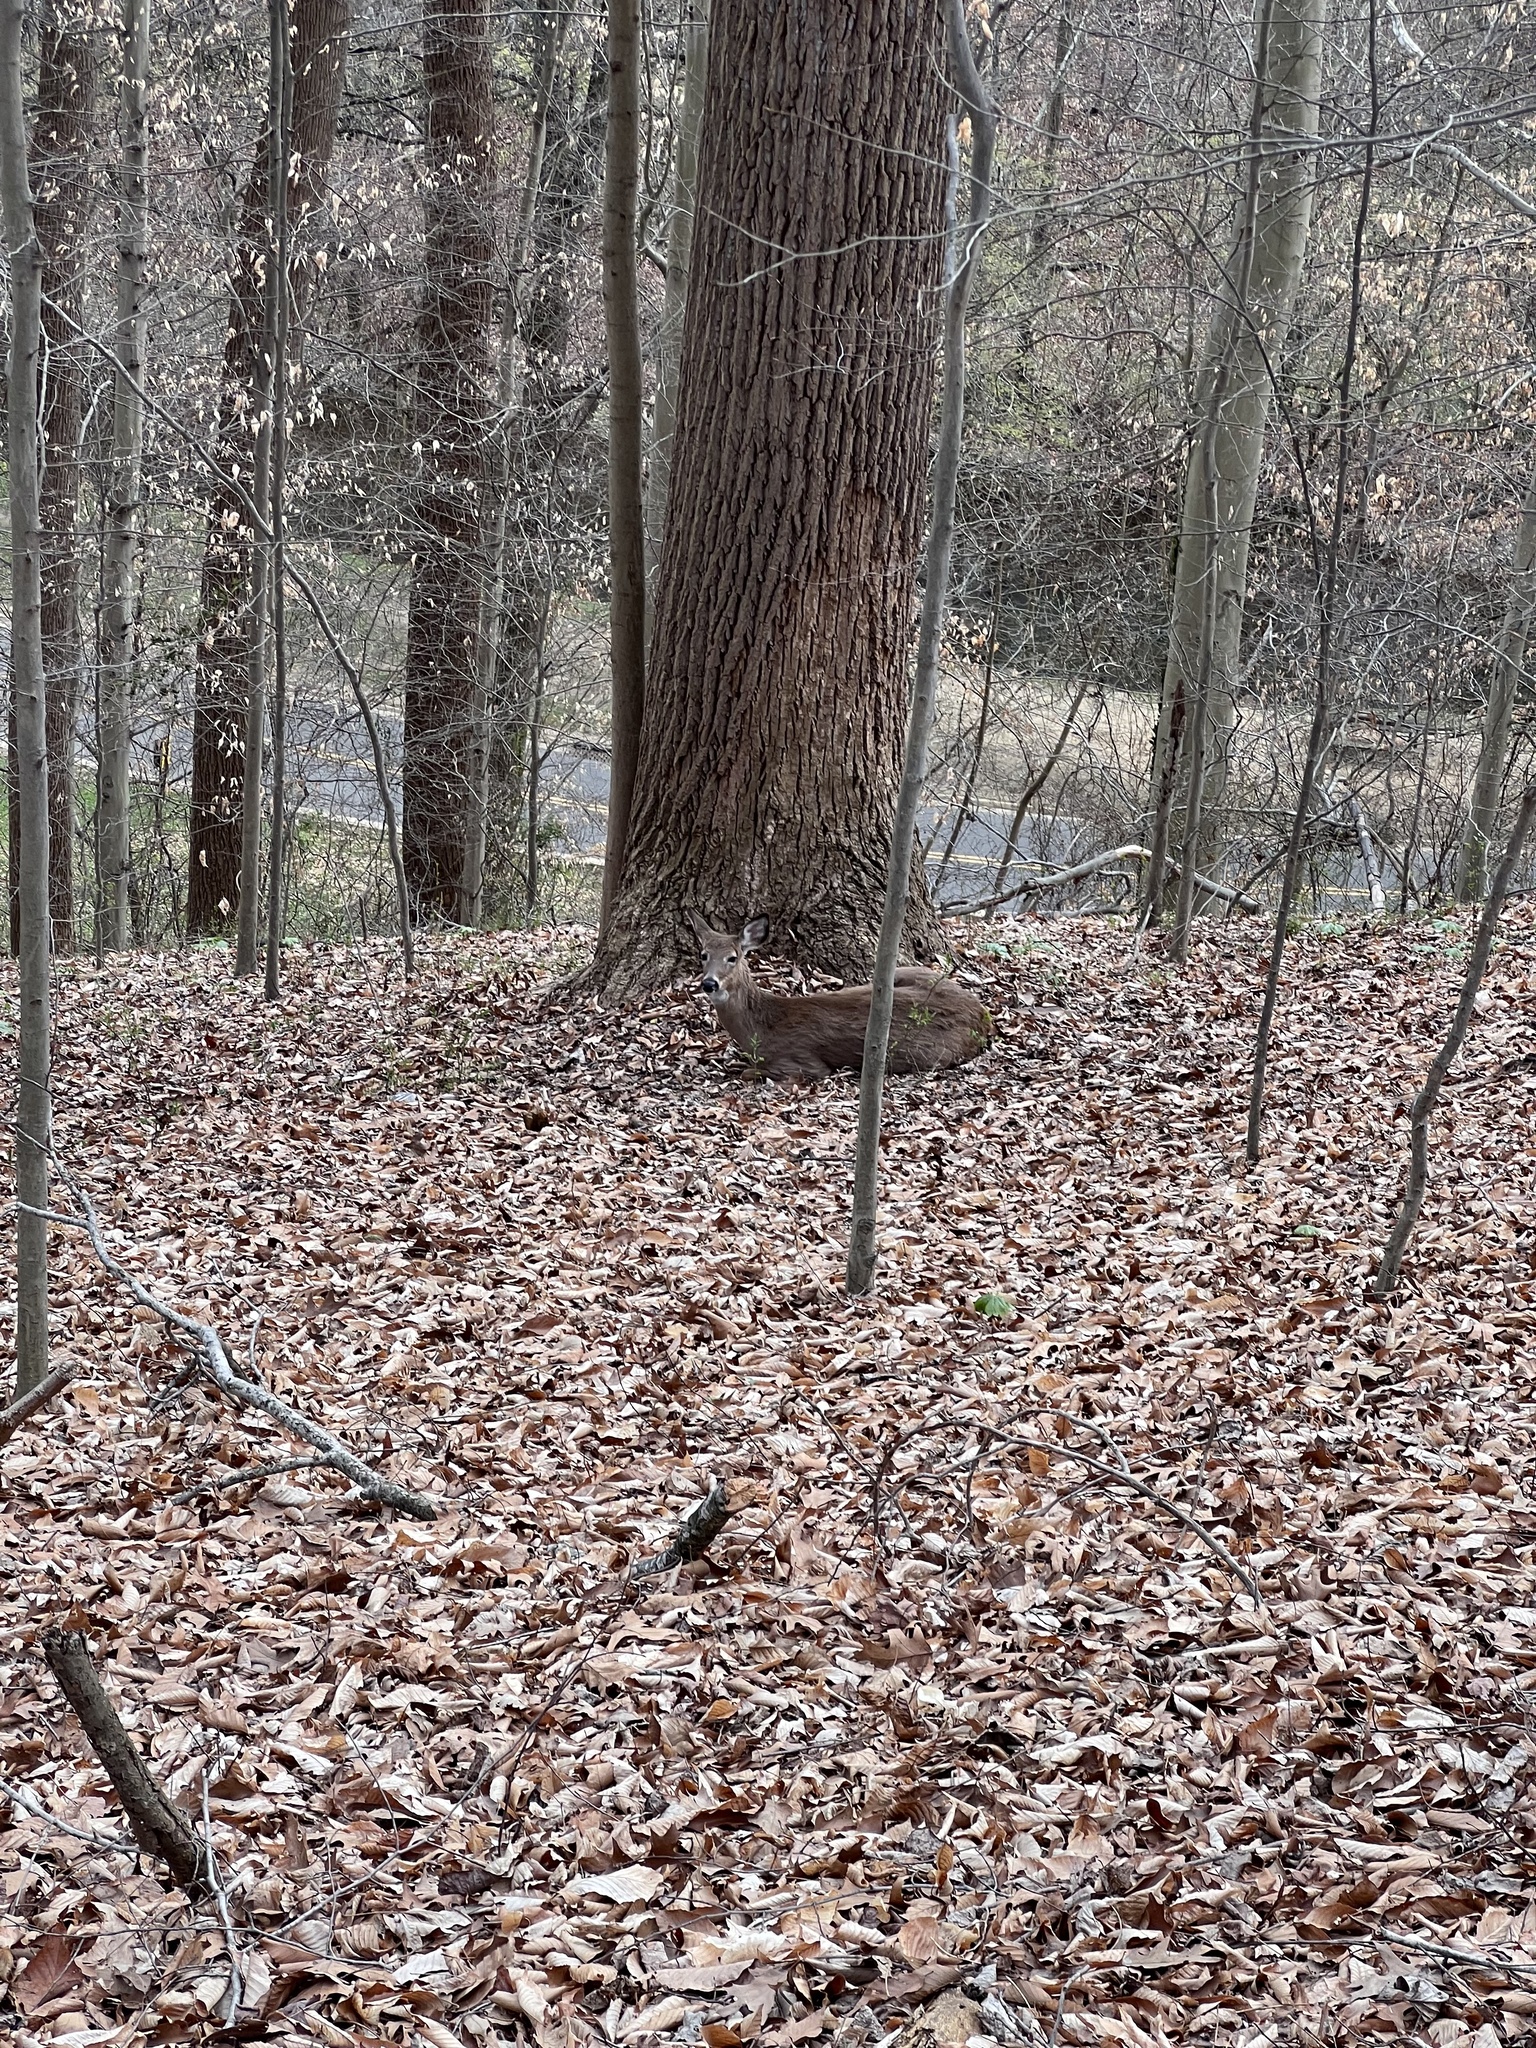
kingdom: Animalia
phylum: Chordata
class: Mammalia
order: Artiodactyla
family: Cervidae
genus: Odocoileus
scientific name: Odocoileus virginianus
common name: White-tailed deer
